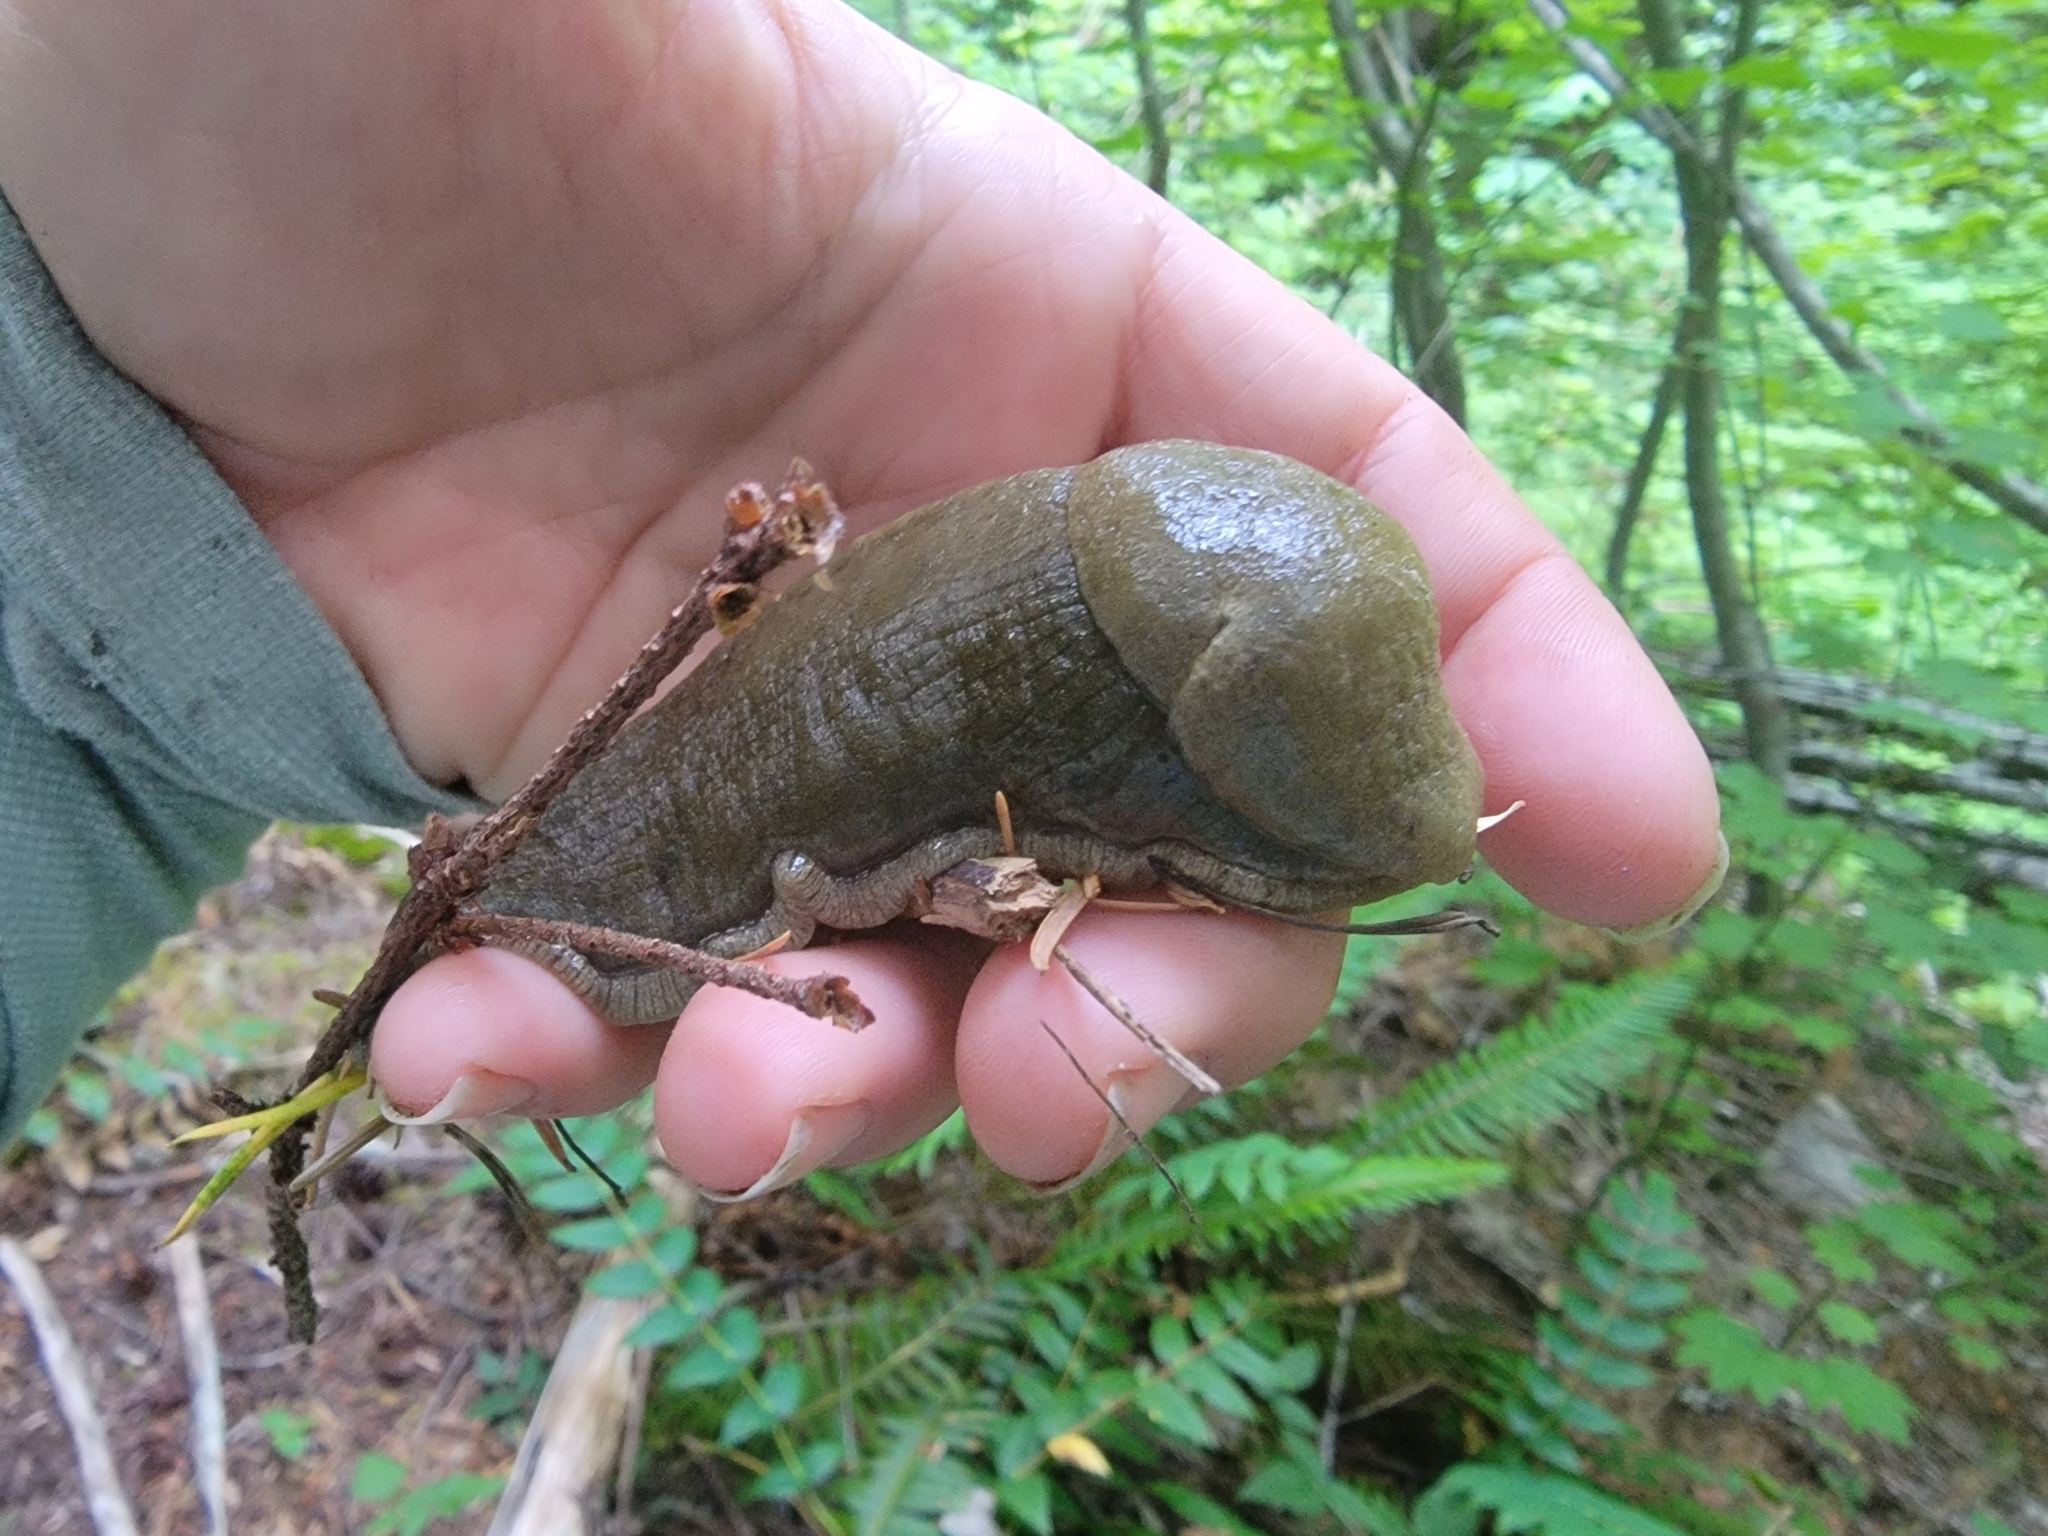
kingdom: Animalia
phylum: Mollusca
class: Gastropoda
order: Stylommatophora
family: Ariolimacidae
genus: Ariolimax
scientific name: Ariolimax columbianus
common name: Pacific banana slug
